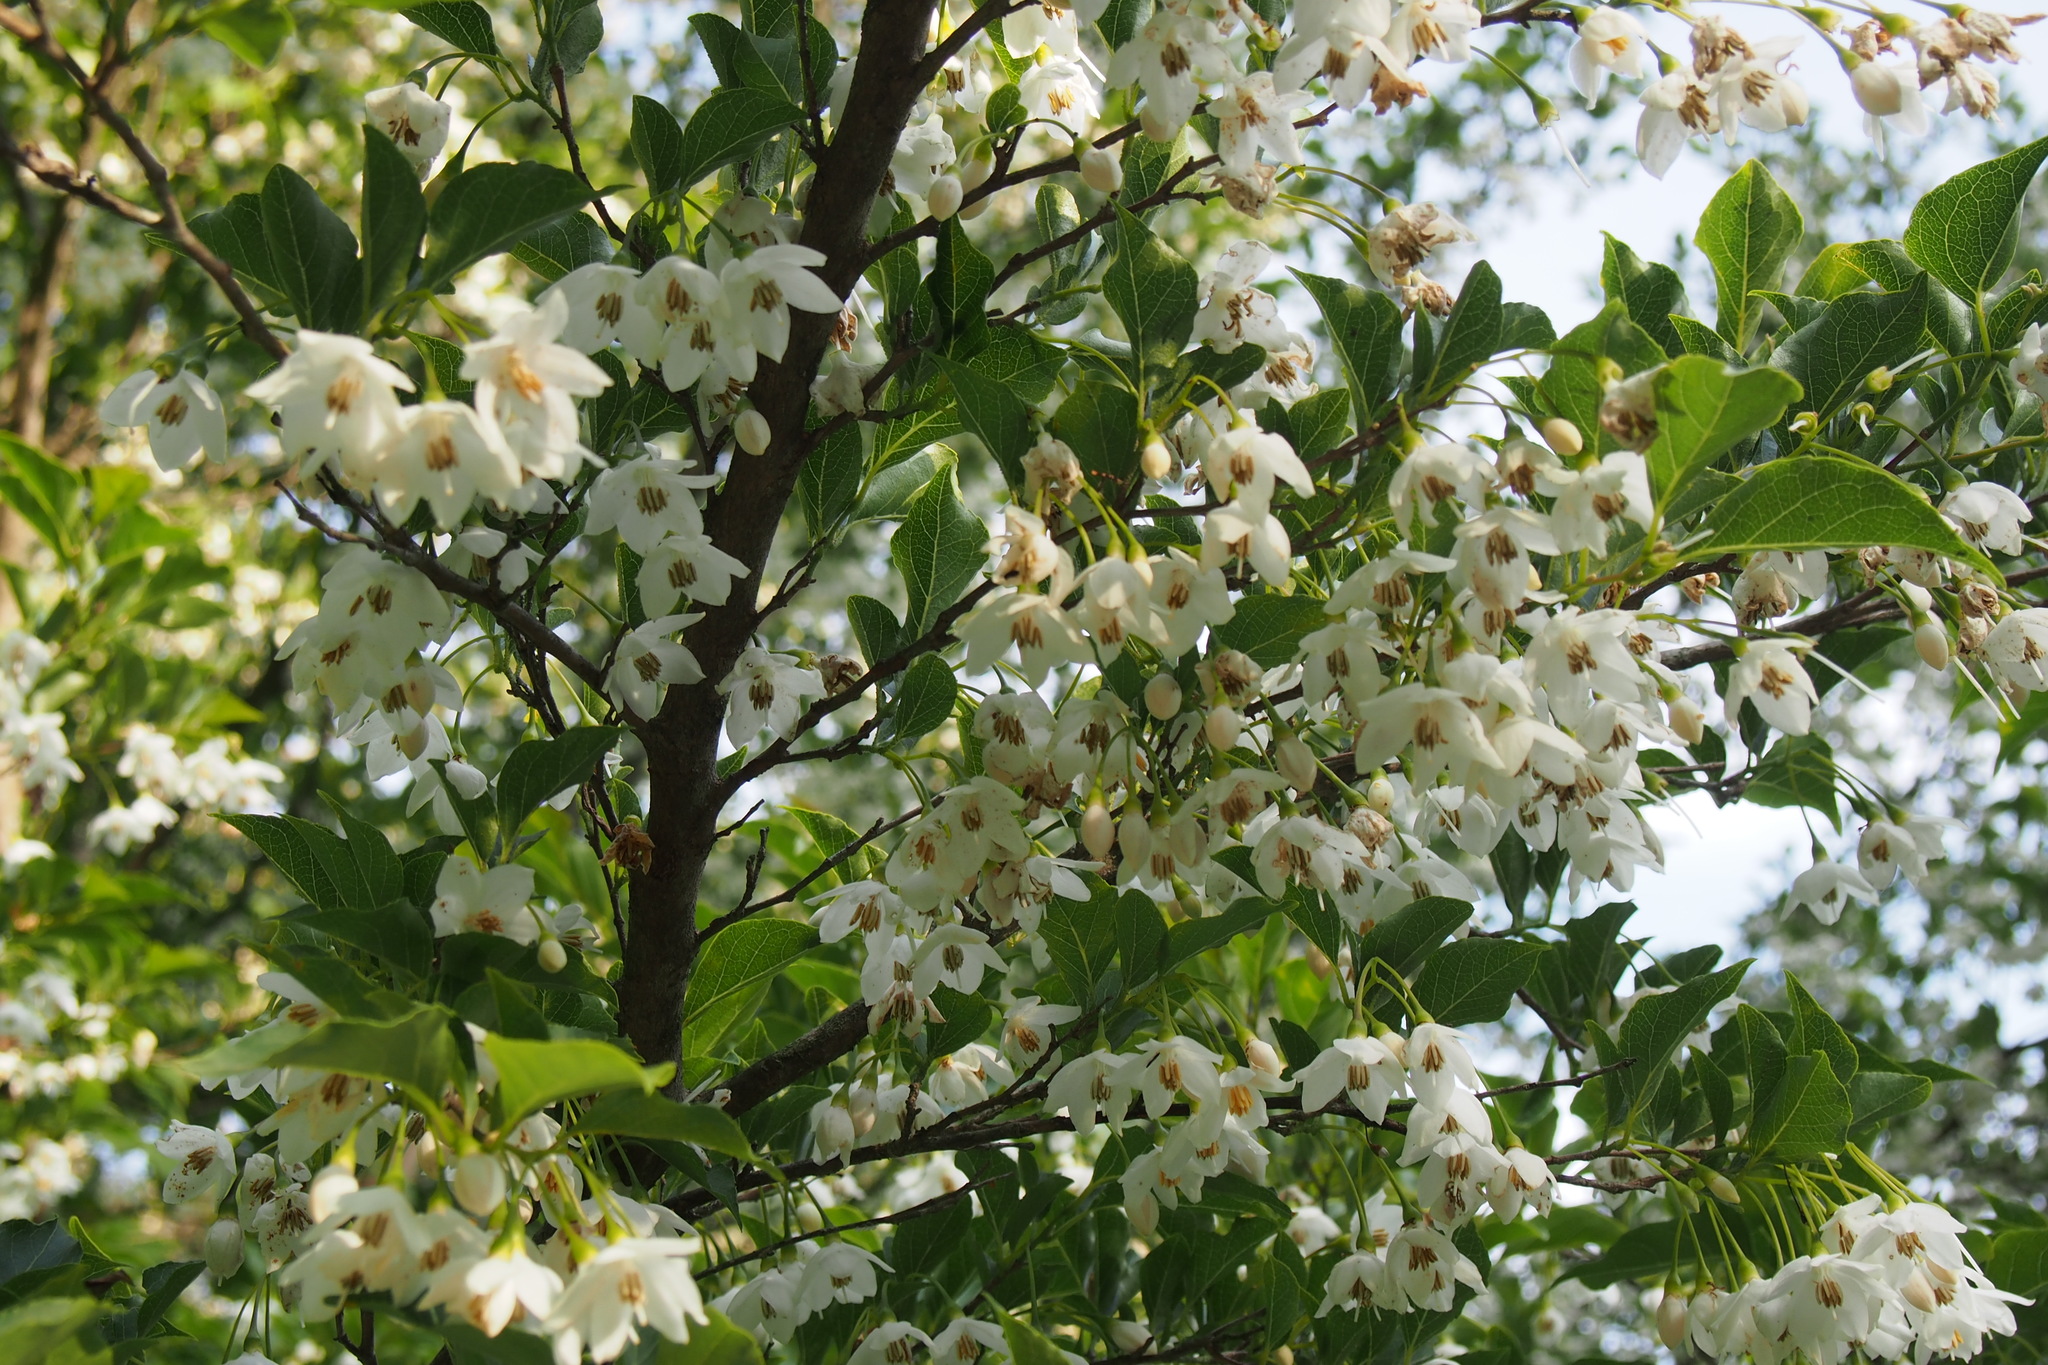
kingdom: Plantae
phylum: Tracheophyta
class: Magnoliopsida
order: Ericales
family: Styracaceae
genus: Styrax
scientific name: Styrax japonicus
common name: Japanese snowbell
